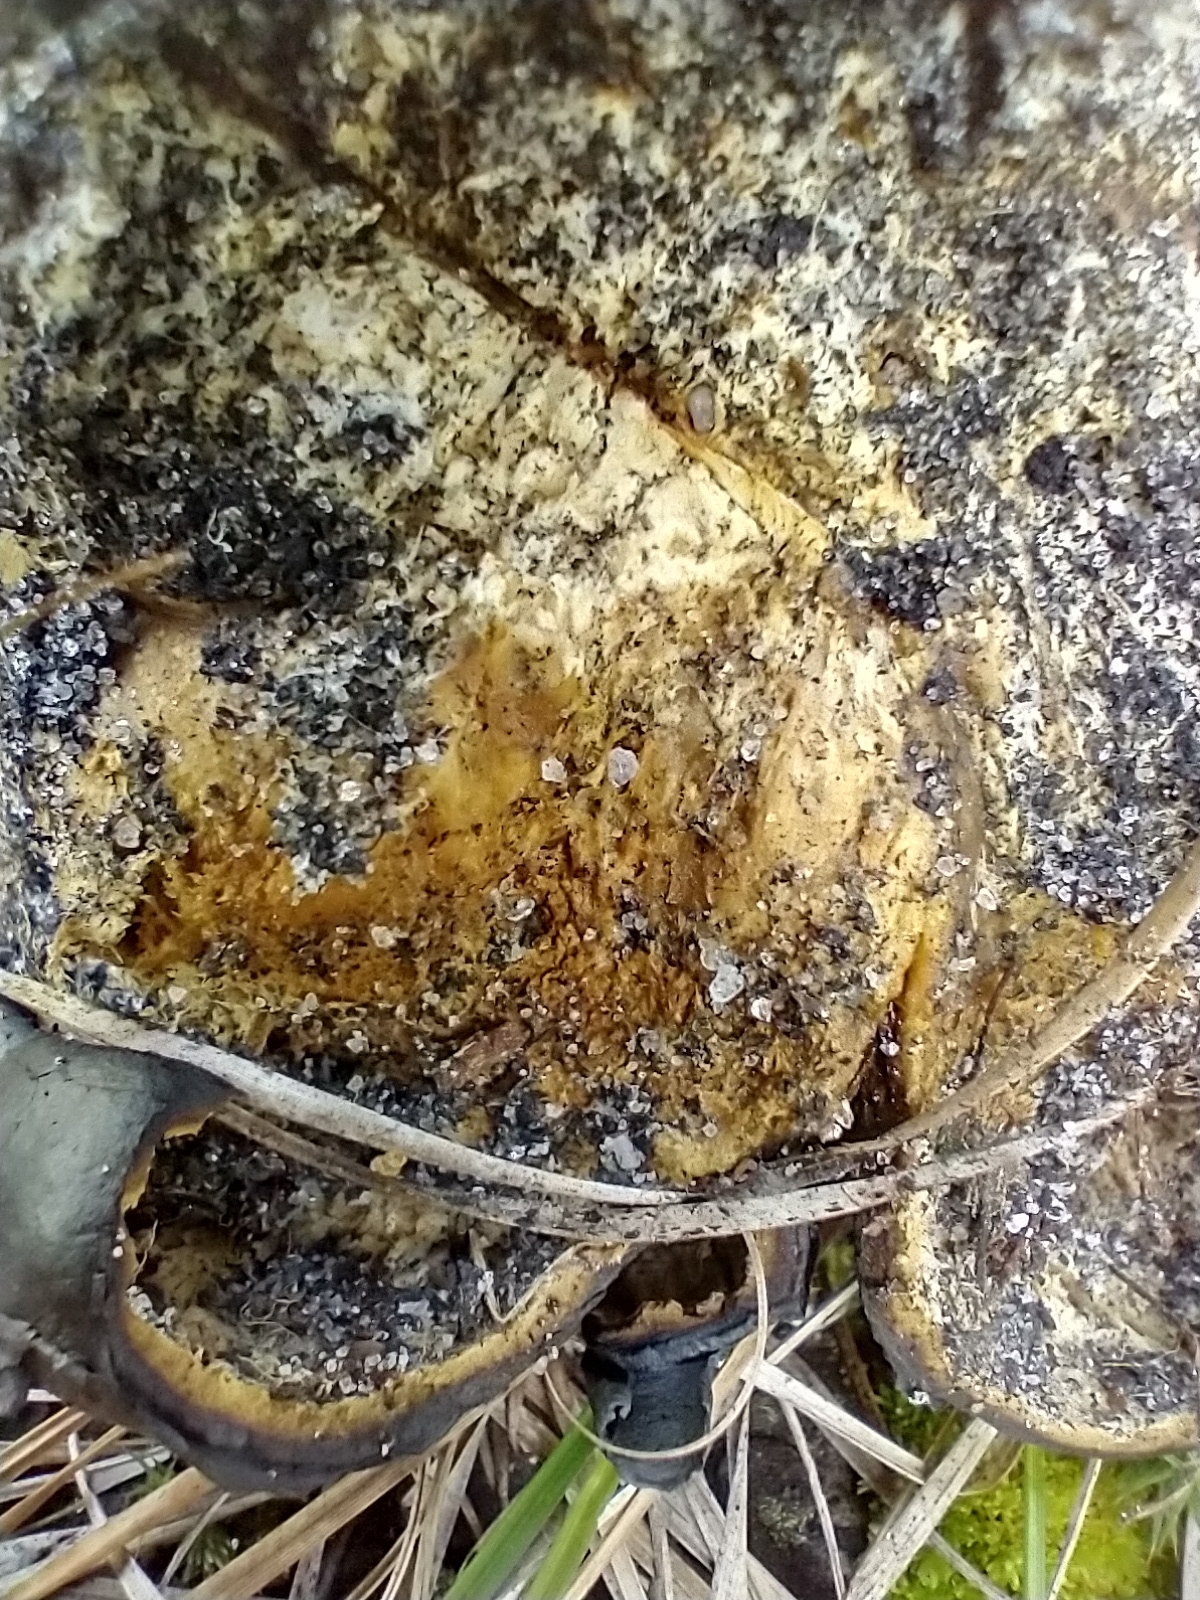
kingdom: Fungi
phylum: Basidiomycota
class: Agaricomycetes
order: Boletales
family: Sclerodermataceae
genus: Scleroderma
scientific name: Scleroderma polyrhizum
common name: Many-rooted earthball
